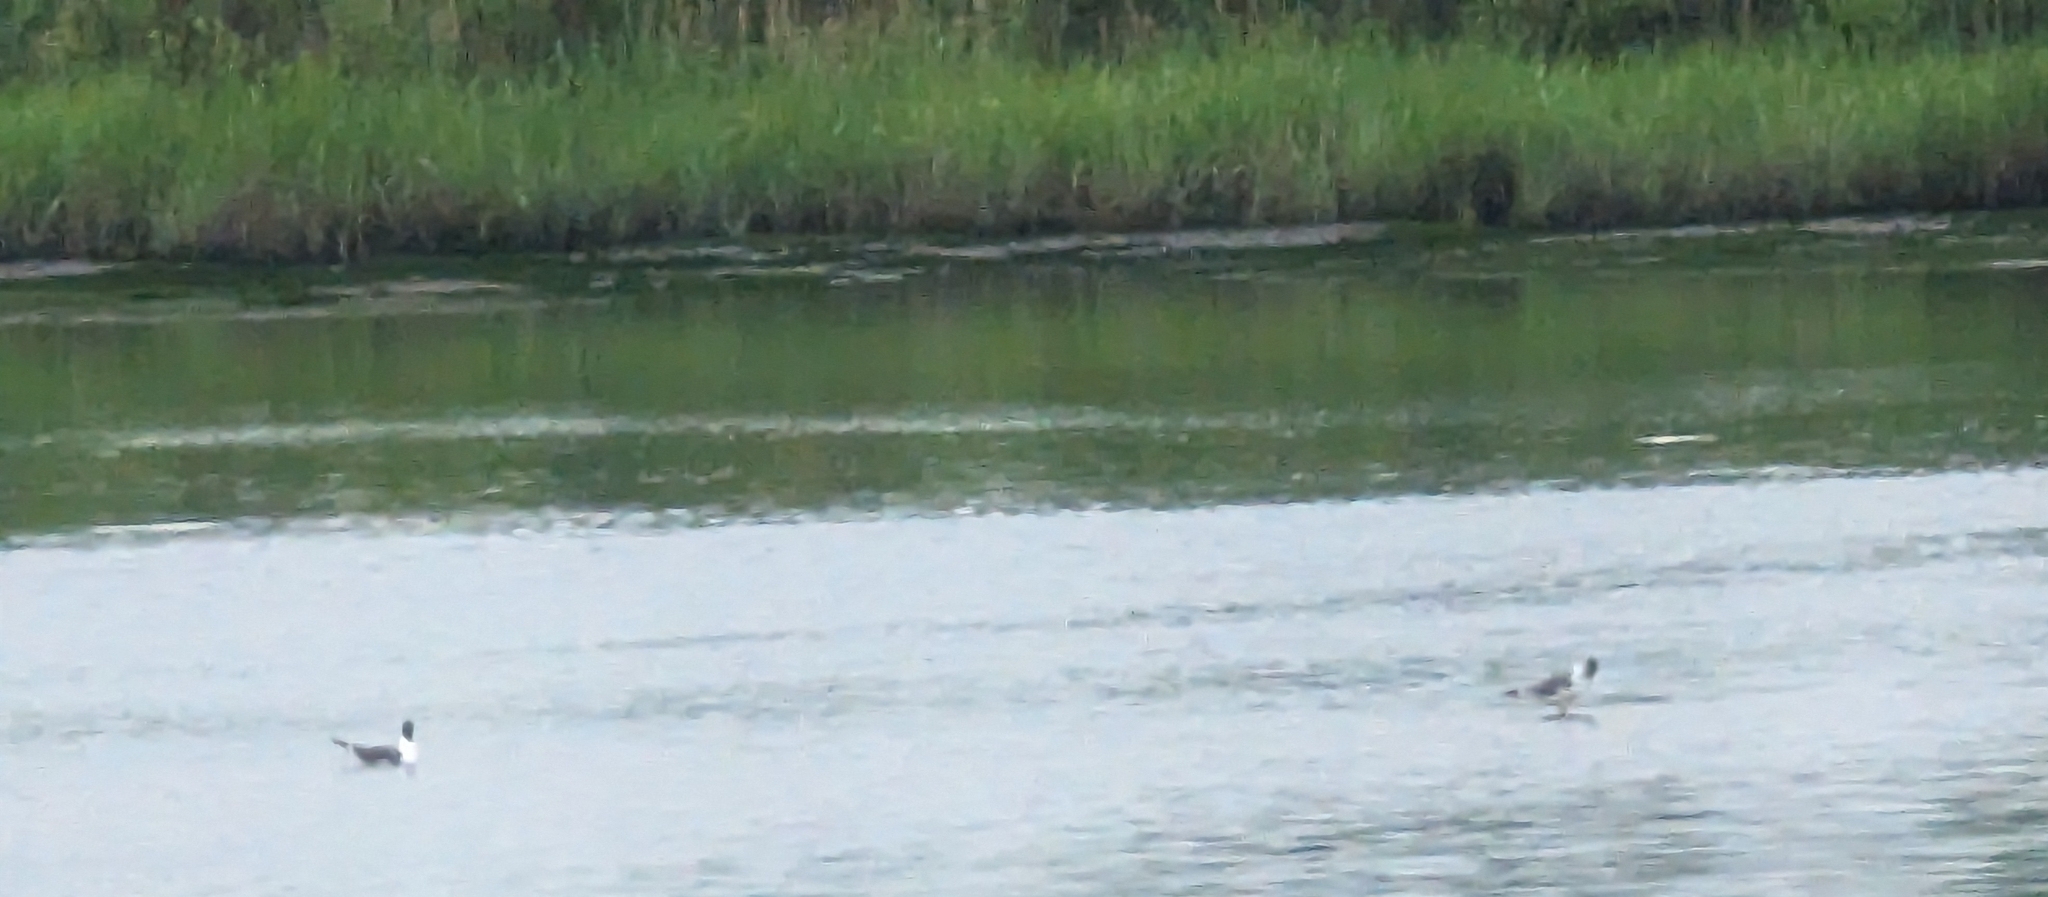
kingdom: Animalia
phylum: Chordata
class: Aves
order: Charadriiformes
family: Laridae
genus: Leucophaeus
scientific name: Leucophaeus atricilla
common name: Laughing gull
